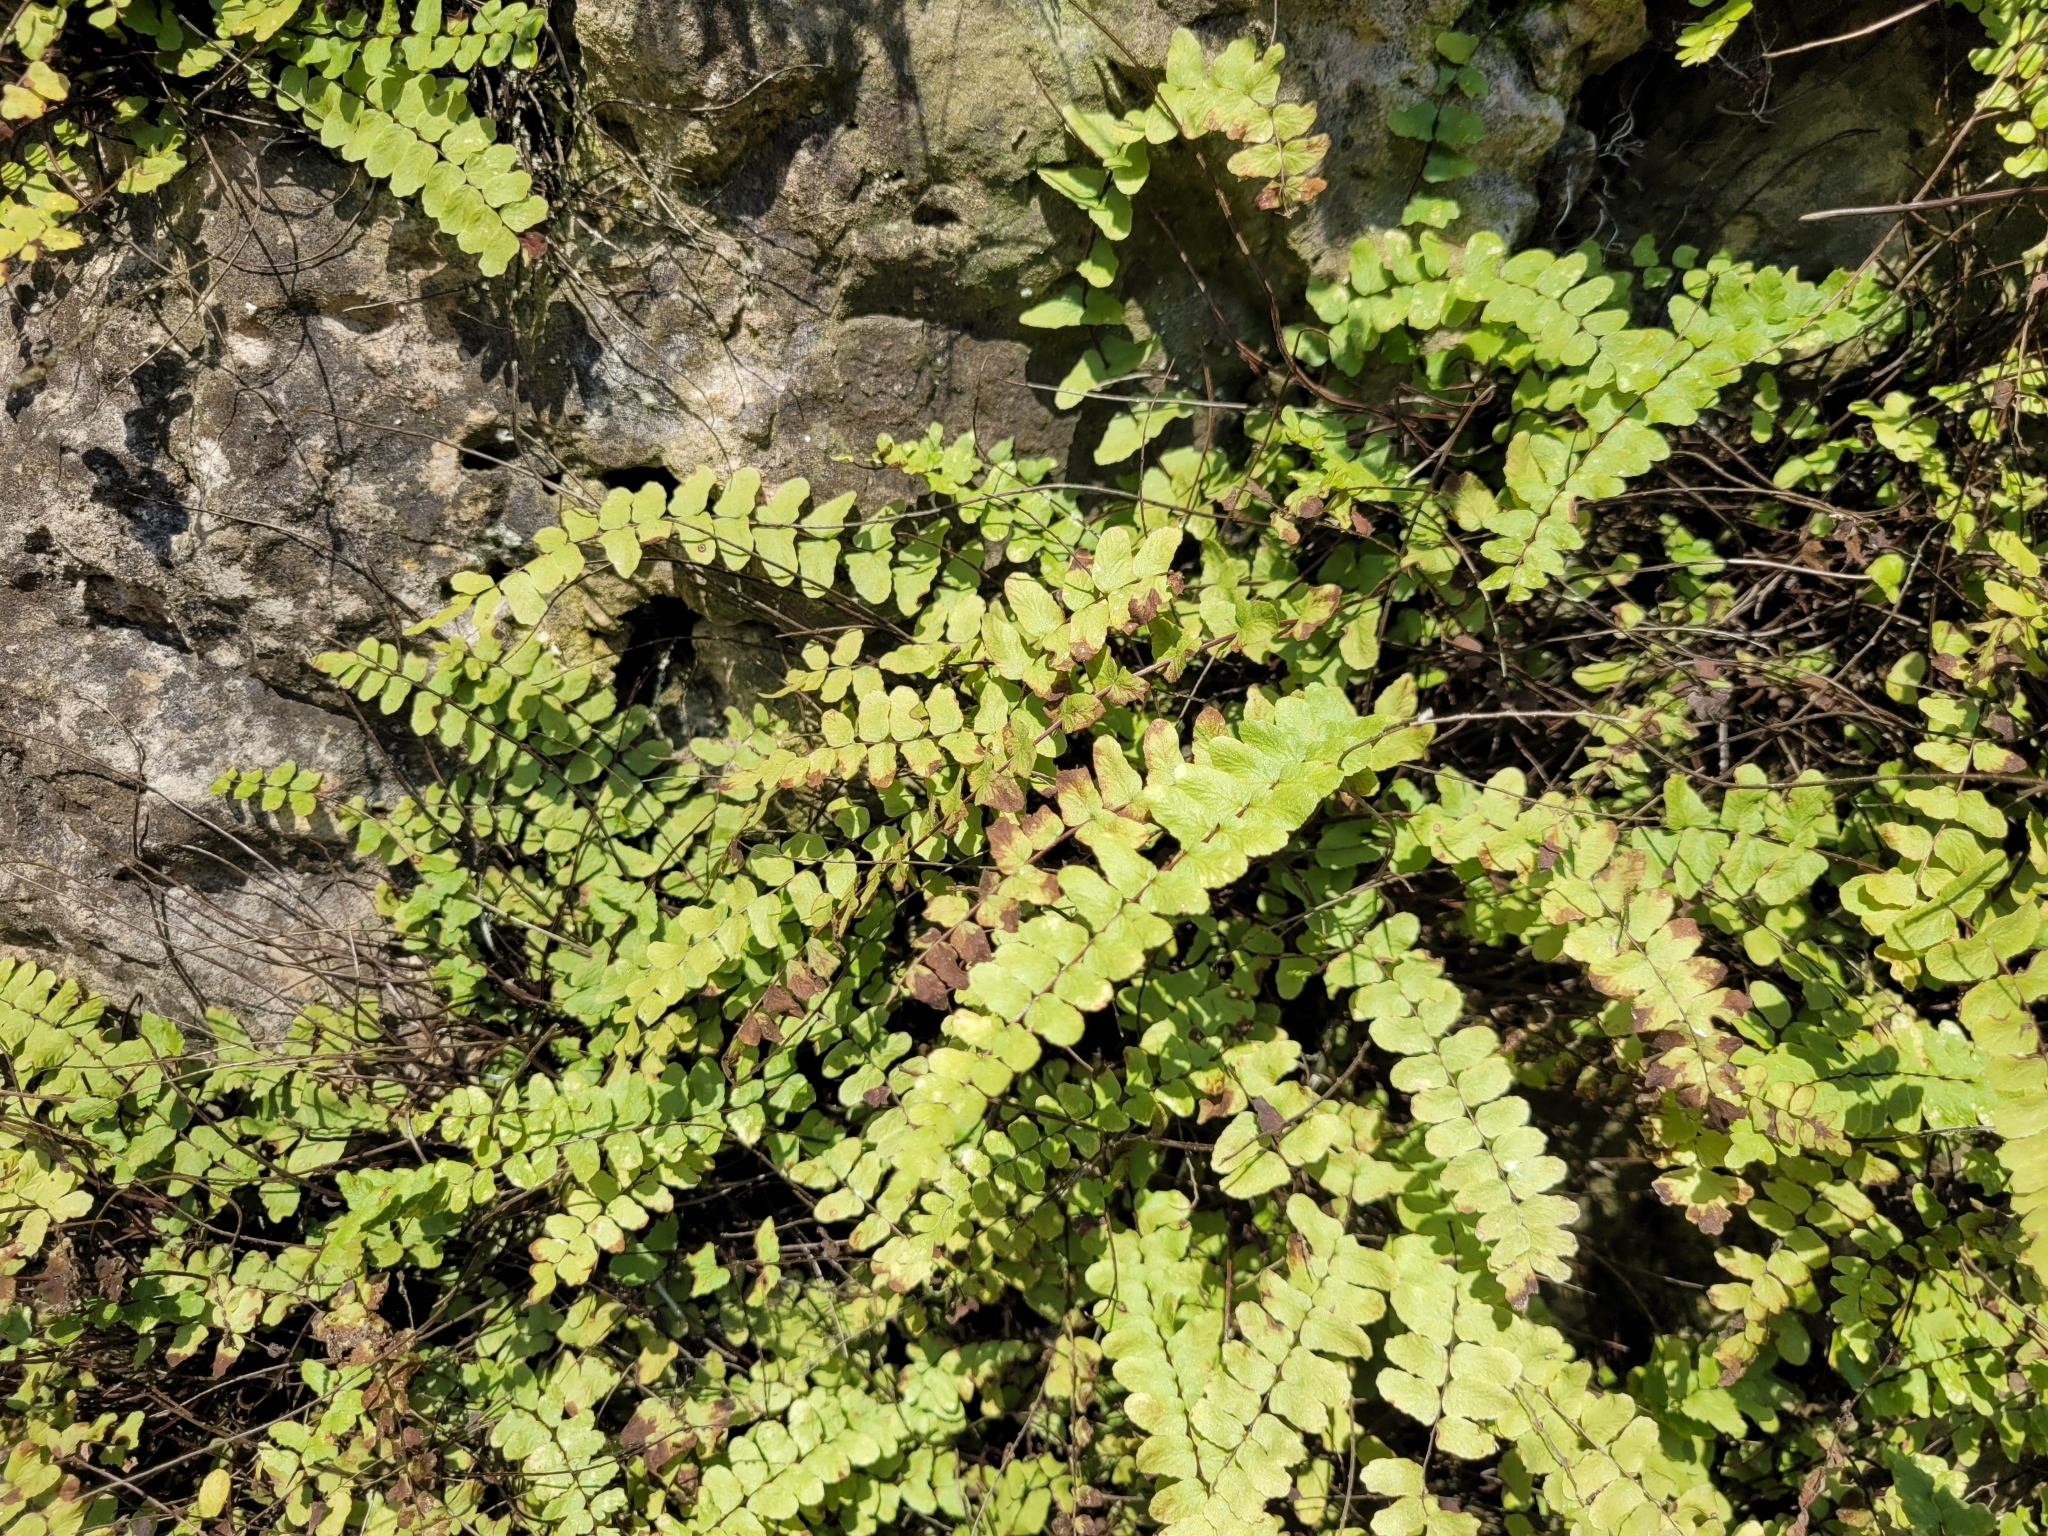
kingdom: Plantae
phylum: Tracheophyta
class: Polypodiopsida
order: Polypodiales
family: Aspleniaceae
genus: Asplenium
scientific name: Asplenium trichomanes
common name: Maidenhair spleenwort
